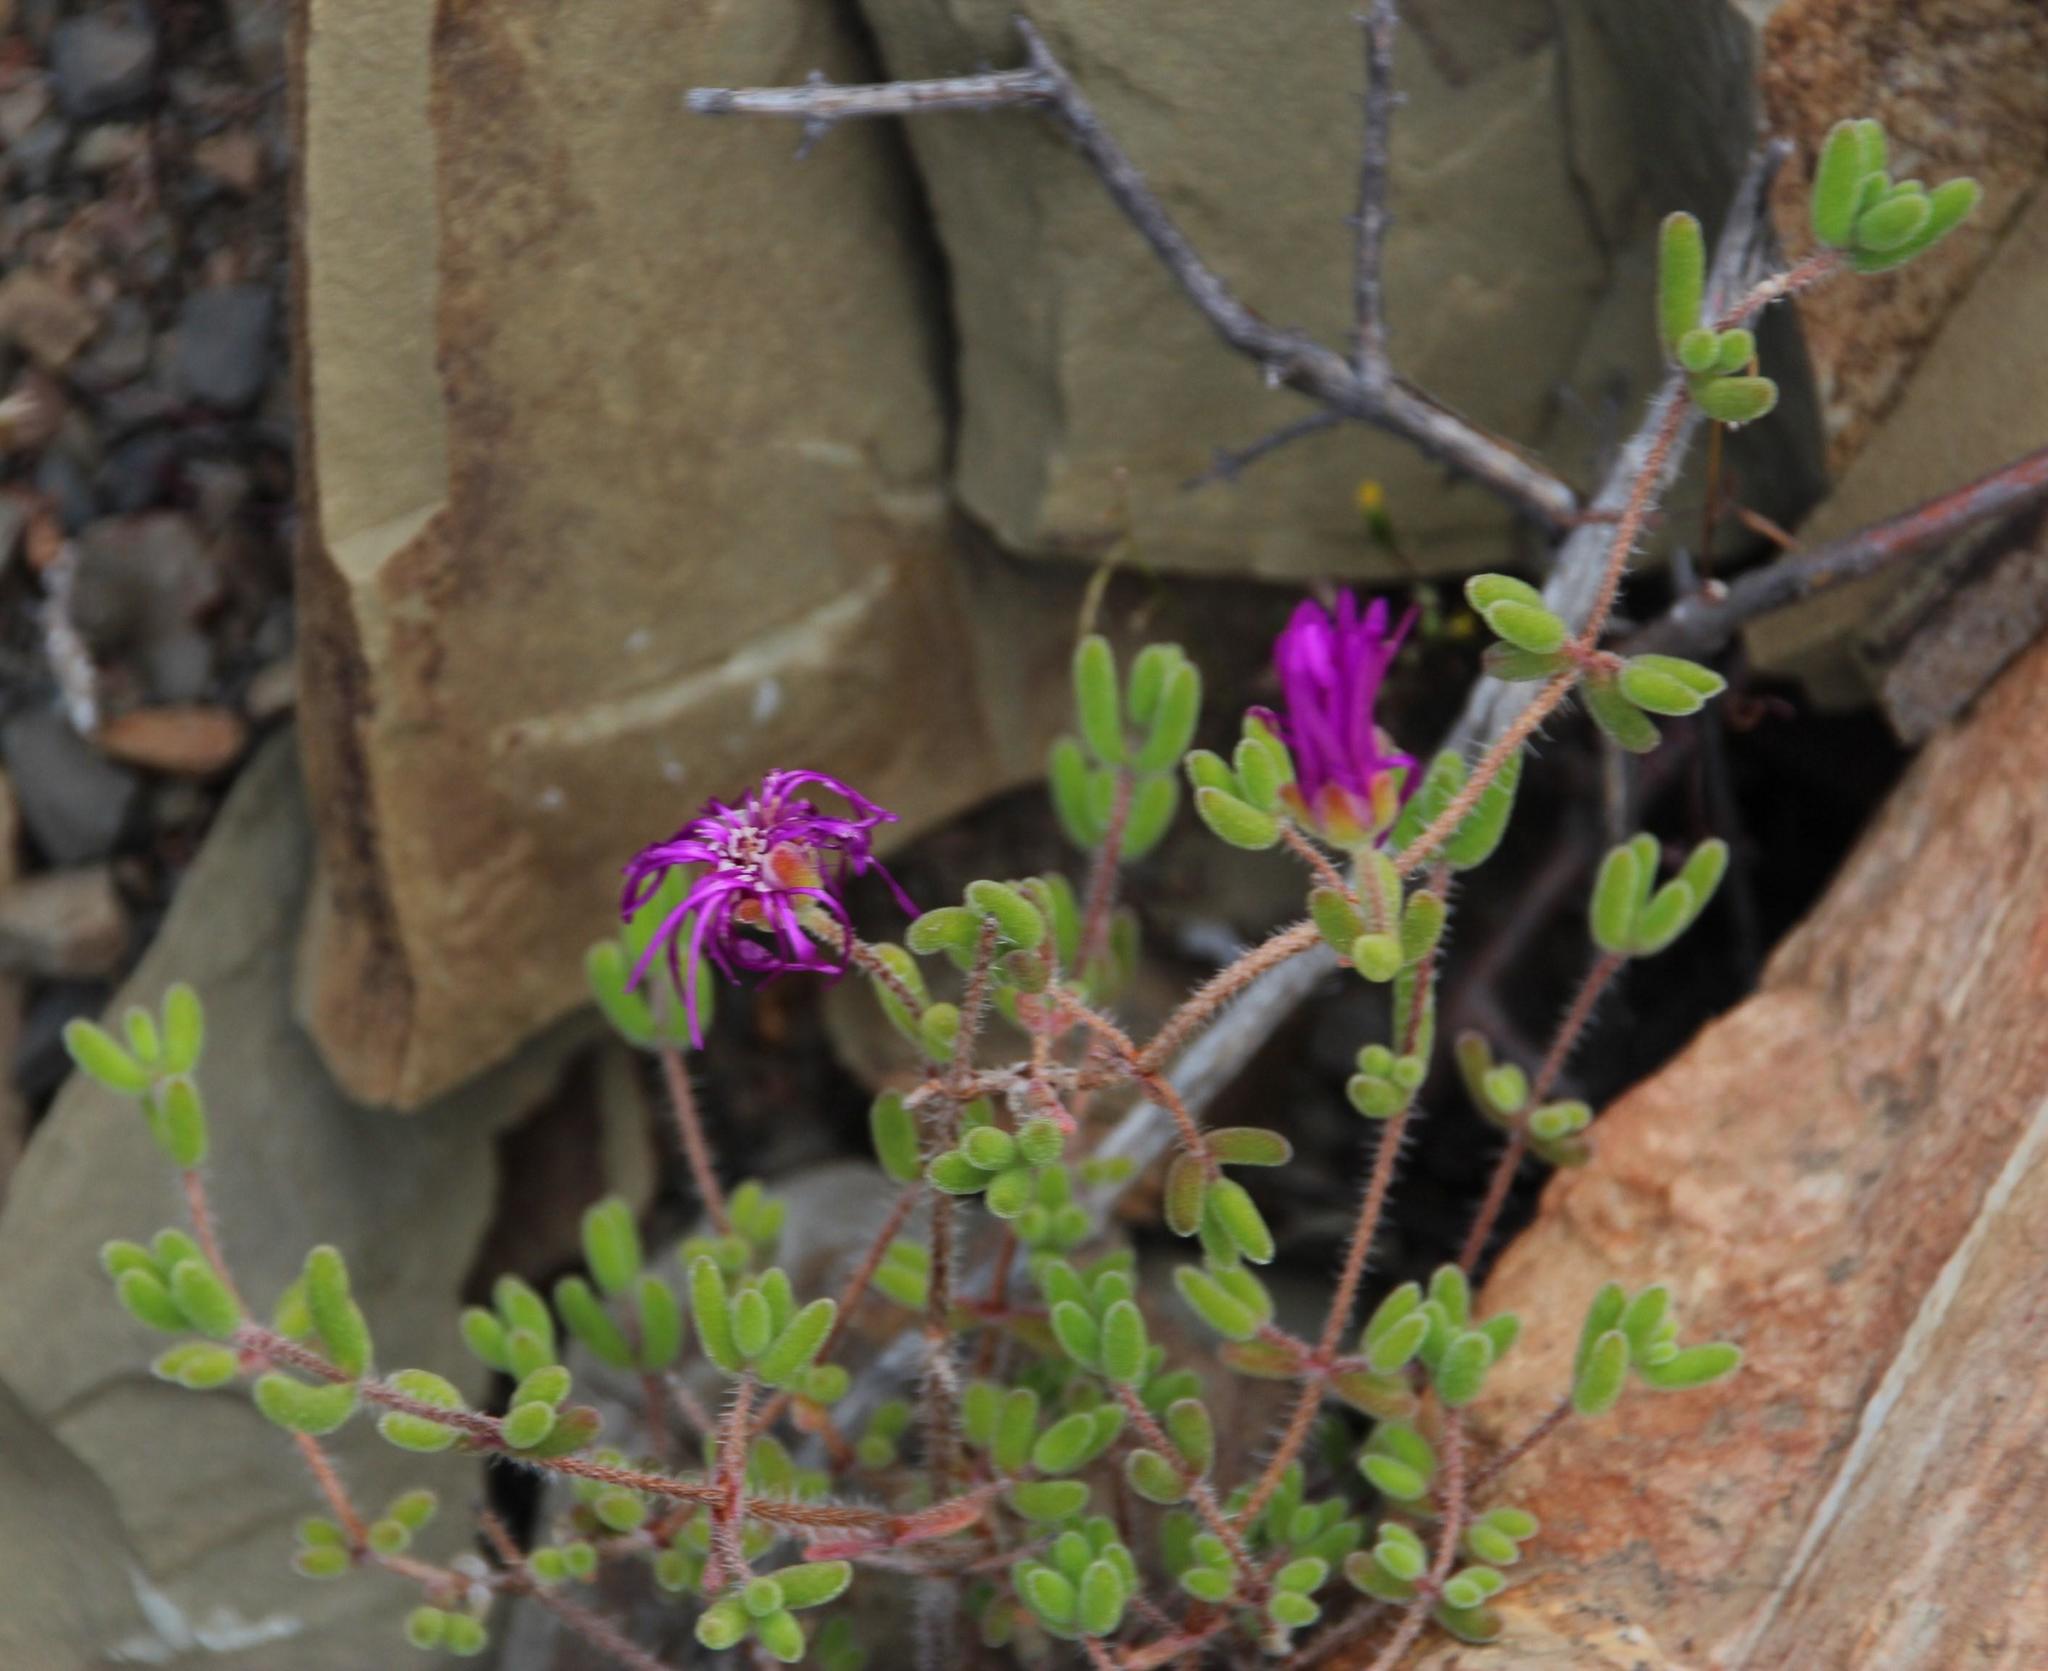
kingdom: Plantae
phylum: Tracheophyta
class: Magnoliopsida
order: Caryophyllales
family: Aizoaceae
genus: Drosanthemum
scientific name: Drosanthemum hispidum
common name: Hairy dewflower
